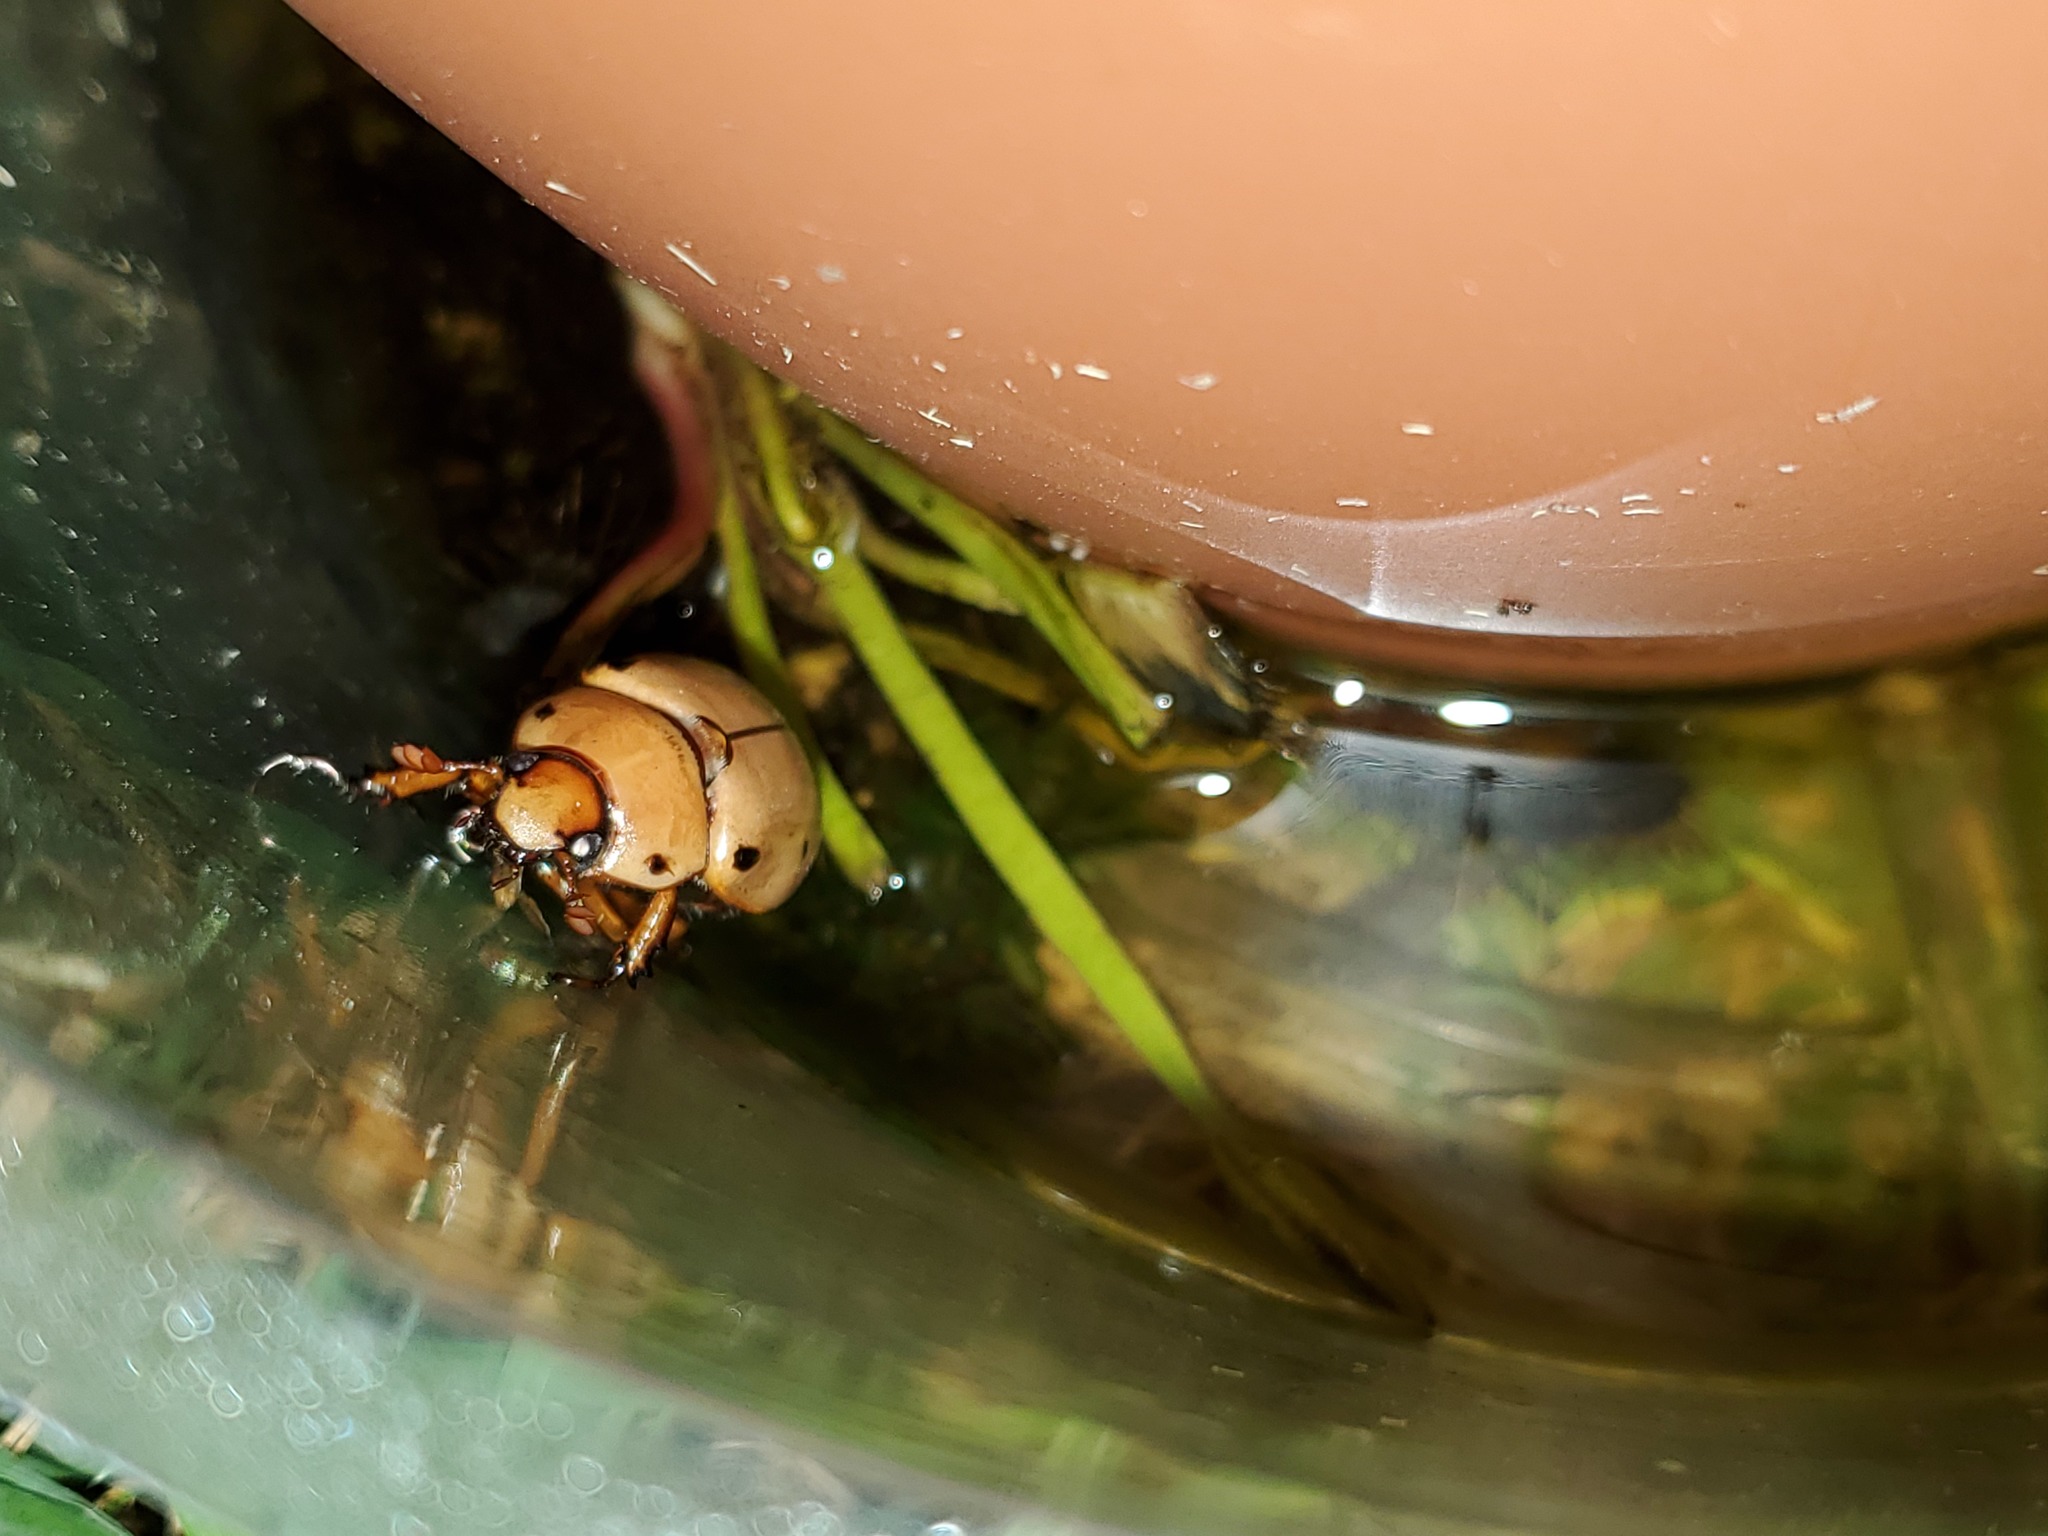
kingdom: Animalia
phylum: Arthropoda
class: Insecta
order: Coleoptera
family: Scarabaeidae
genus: Pelidnota
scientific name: Pelidnota punctata
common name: Grapevine beetle
